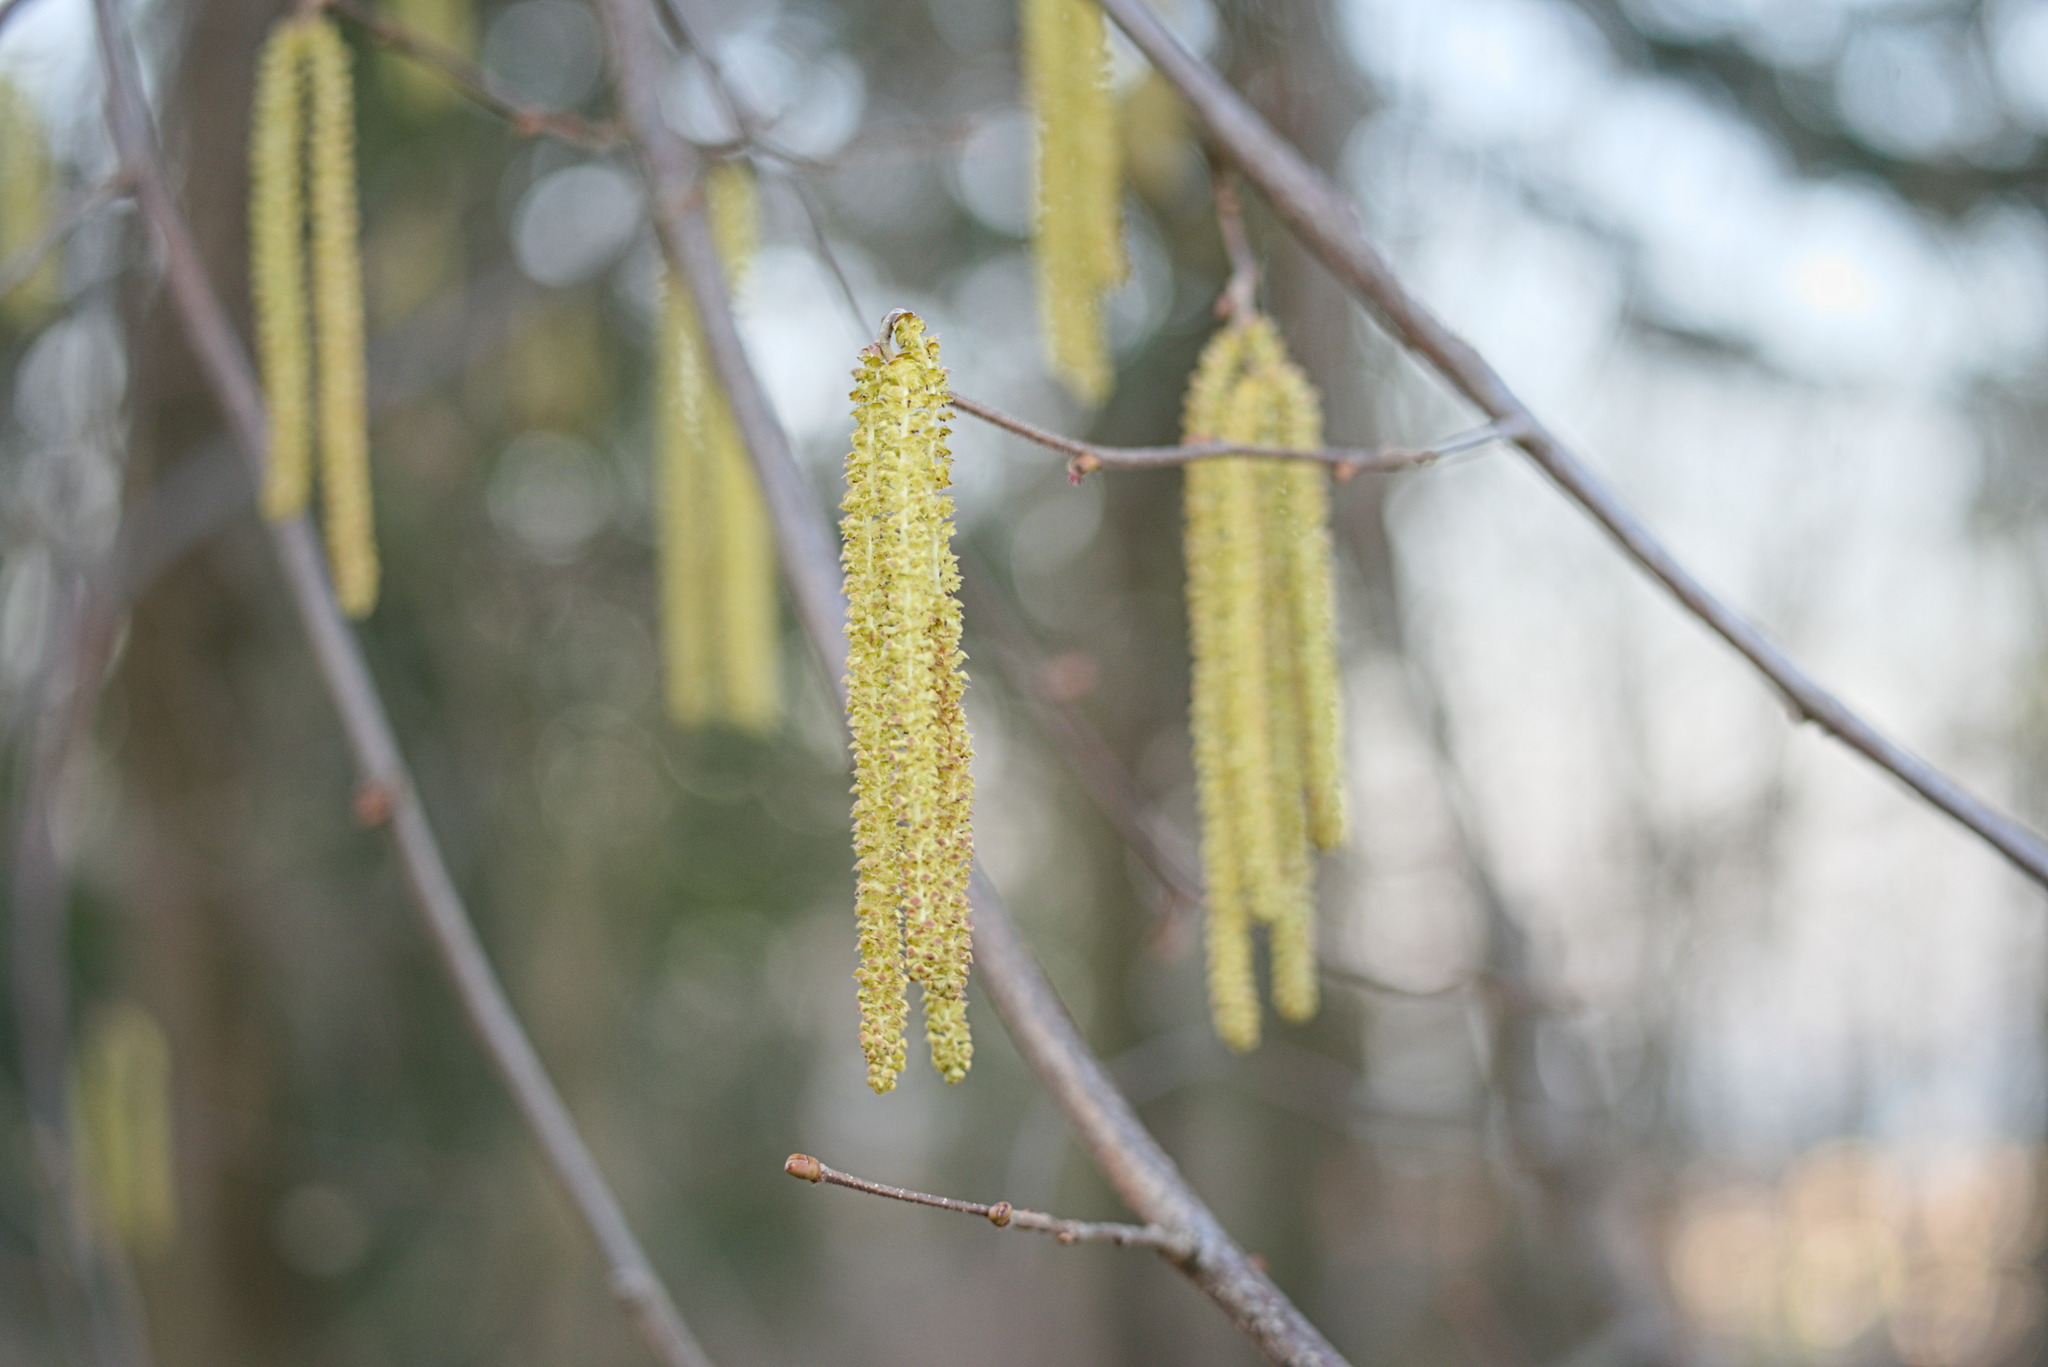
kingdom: Plantae
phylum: Tracheophyta
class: Magnoliopsida
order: Fagales
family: Betulaceae
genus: Corylus
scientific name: Corylus avellana
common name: European hazel
